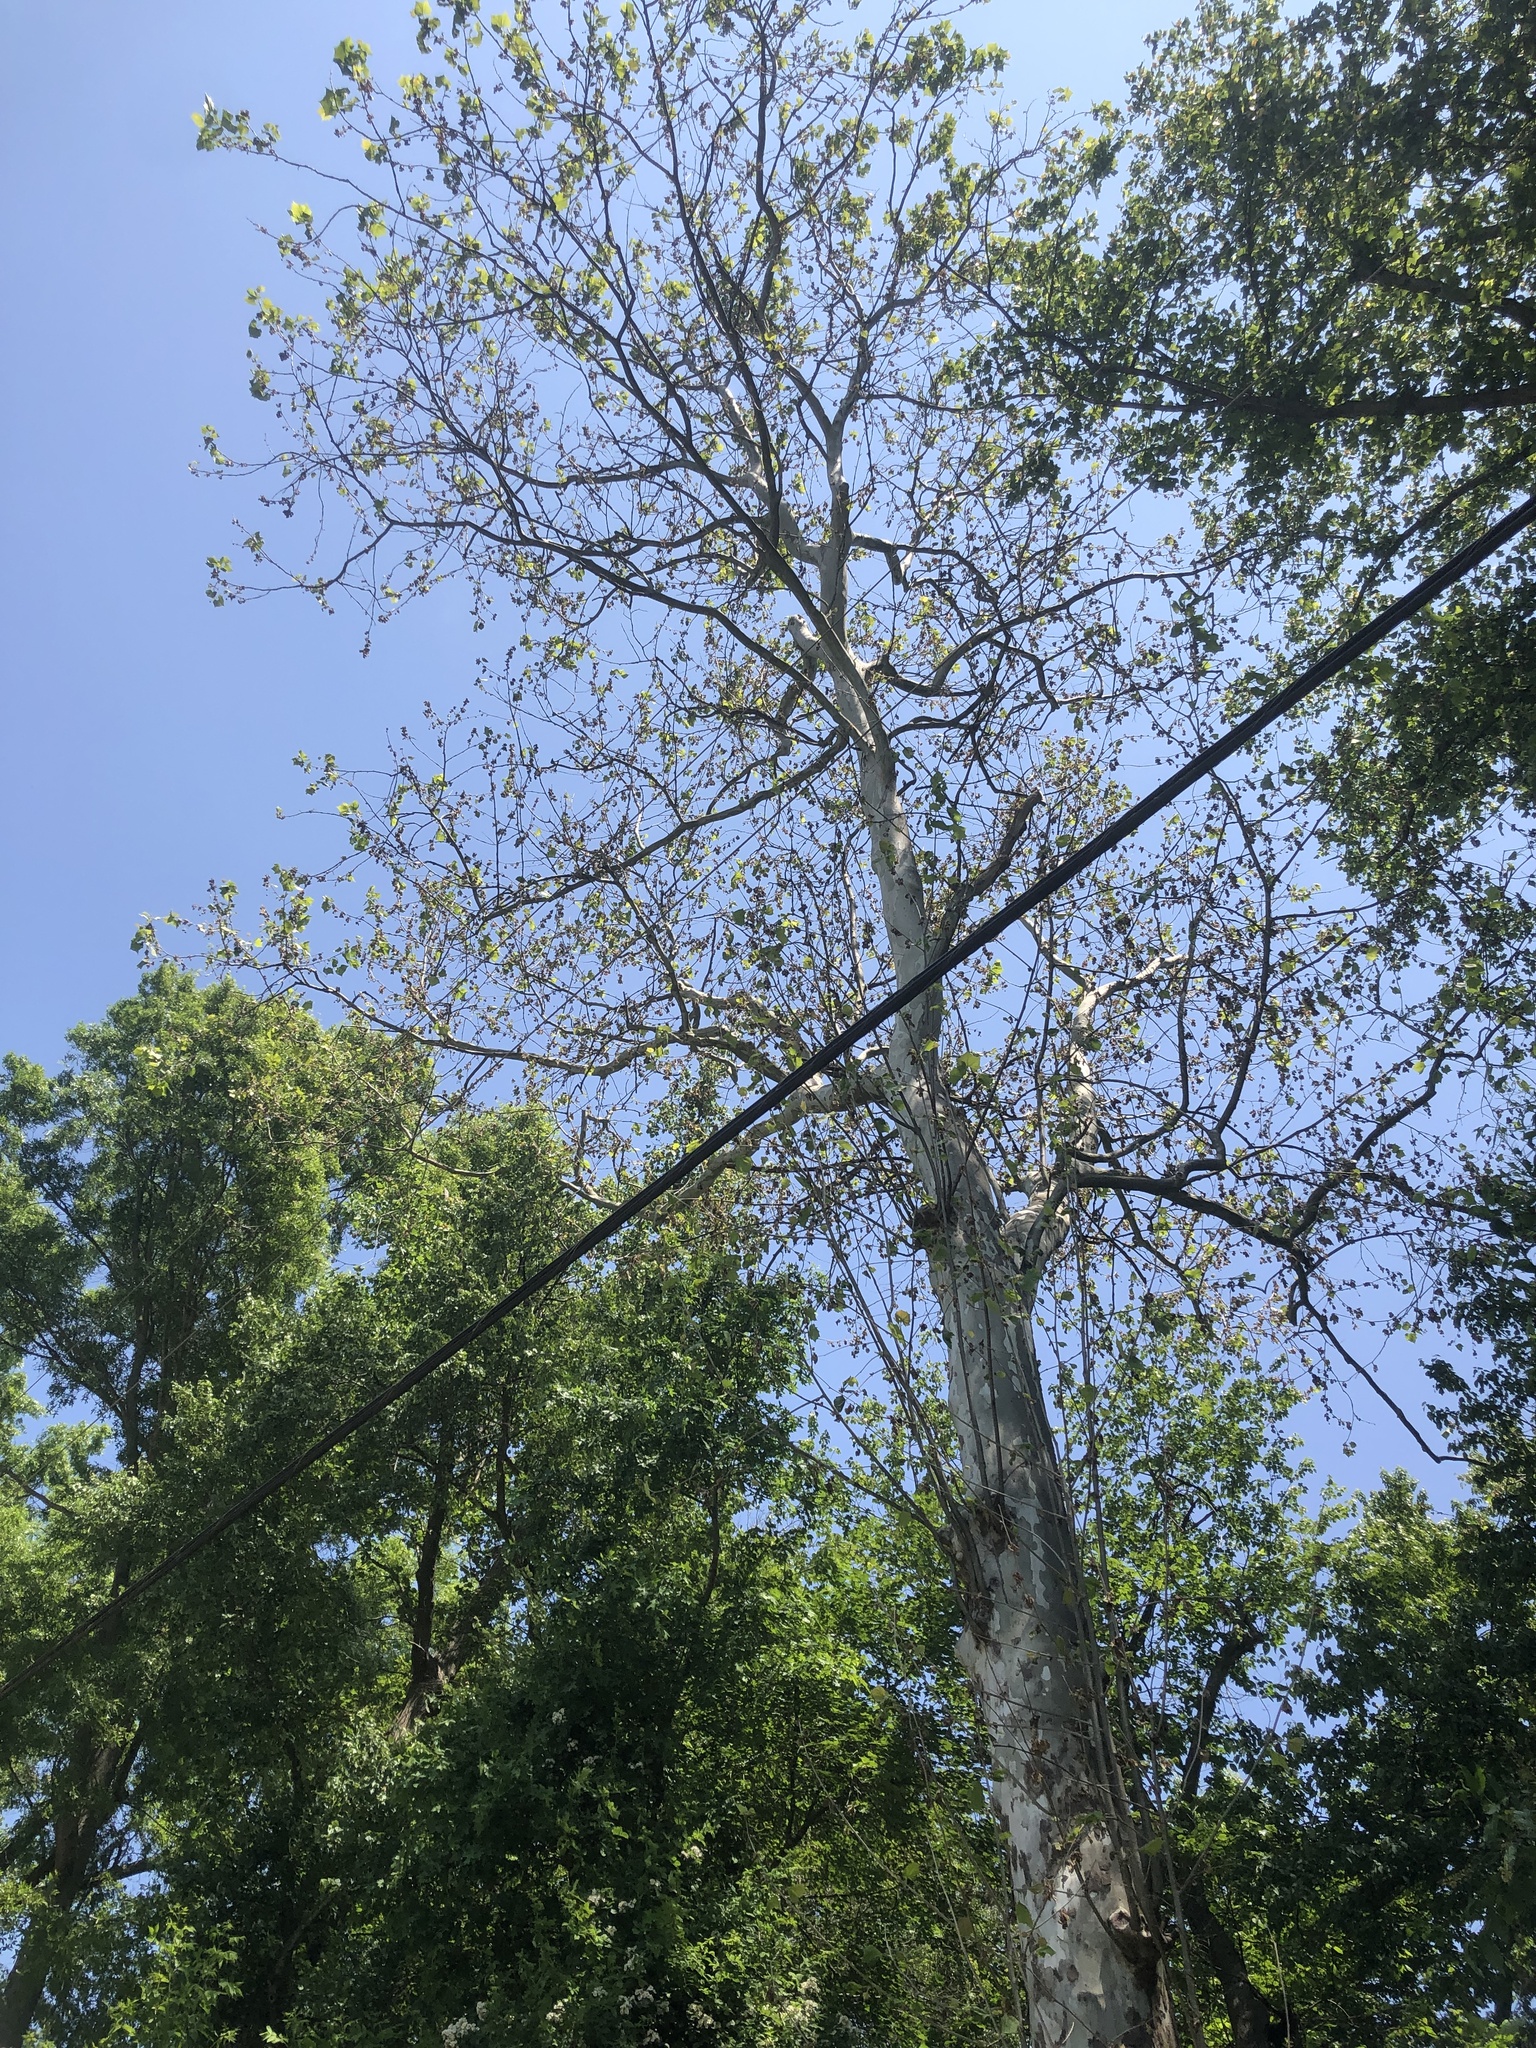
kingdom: Plantae
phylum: Tracheophyta
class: Magnoliopsida
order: Proteales
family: Platanaceae
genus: Platanus
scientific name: Platanus occidentalis
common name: American sycamore
